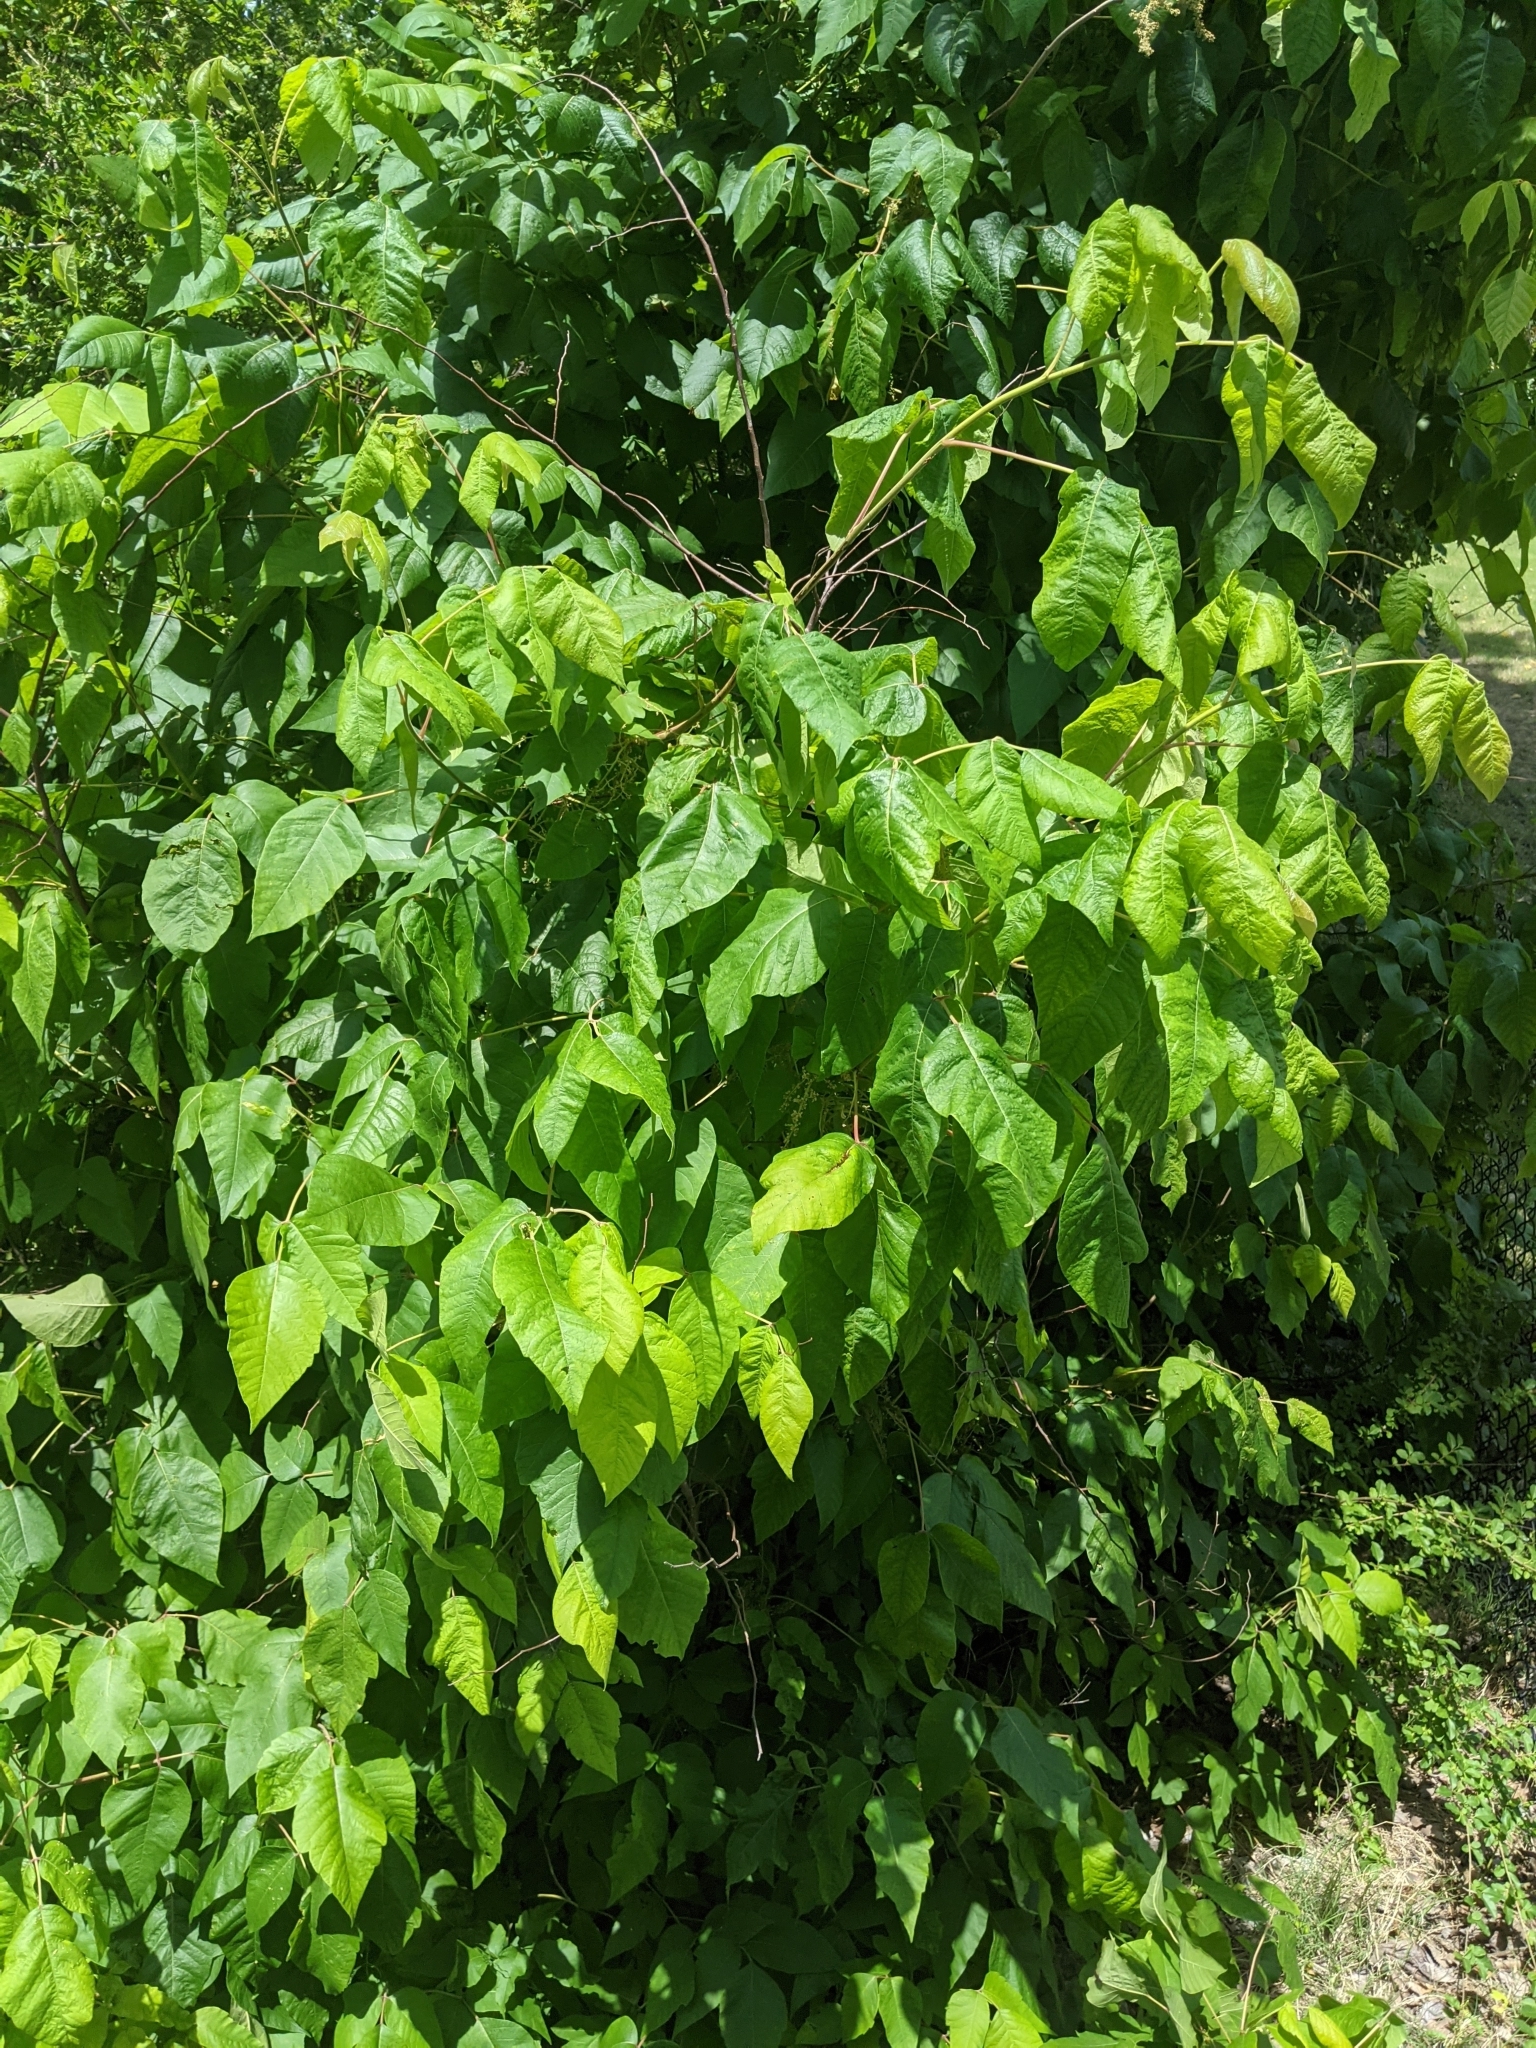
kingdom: Plantae
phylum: Tracheophyta
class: Magnoliopsida
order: Sapindales
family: Anacardiaceae
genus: Toxicodendron
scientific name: Toxicodendron radicans
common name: Poison ivy
